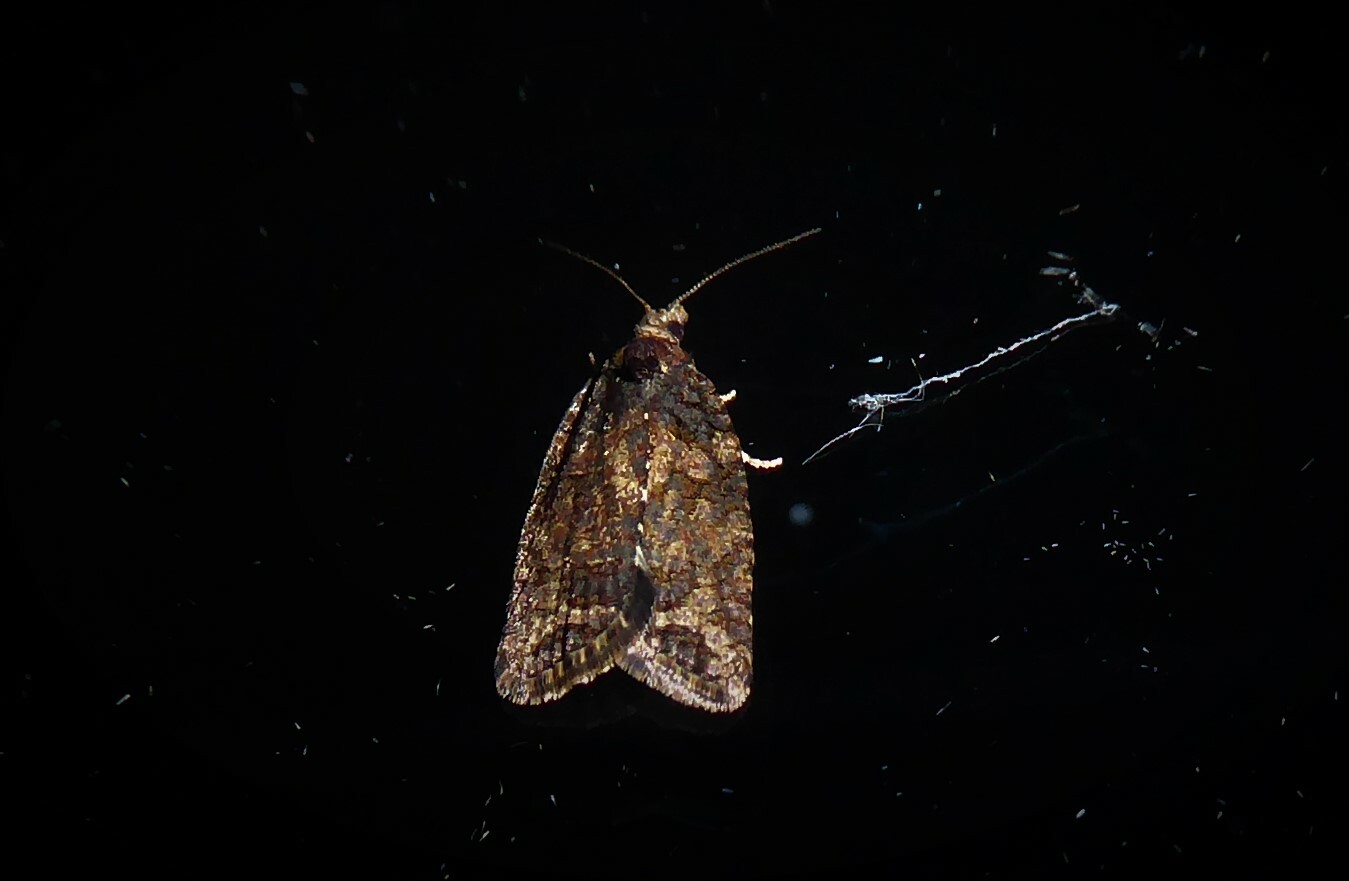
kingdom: Animalia
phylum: Arthropoda
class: Insecta
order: Lepidoptera
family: Tortricidae
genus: Capua
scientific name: Capua intractana
